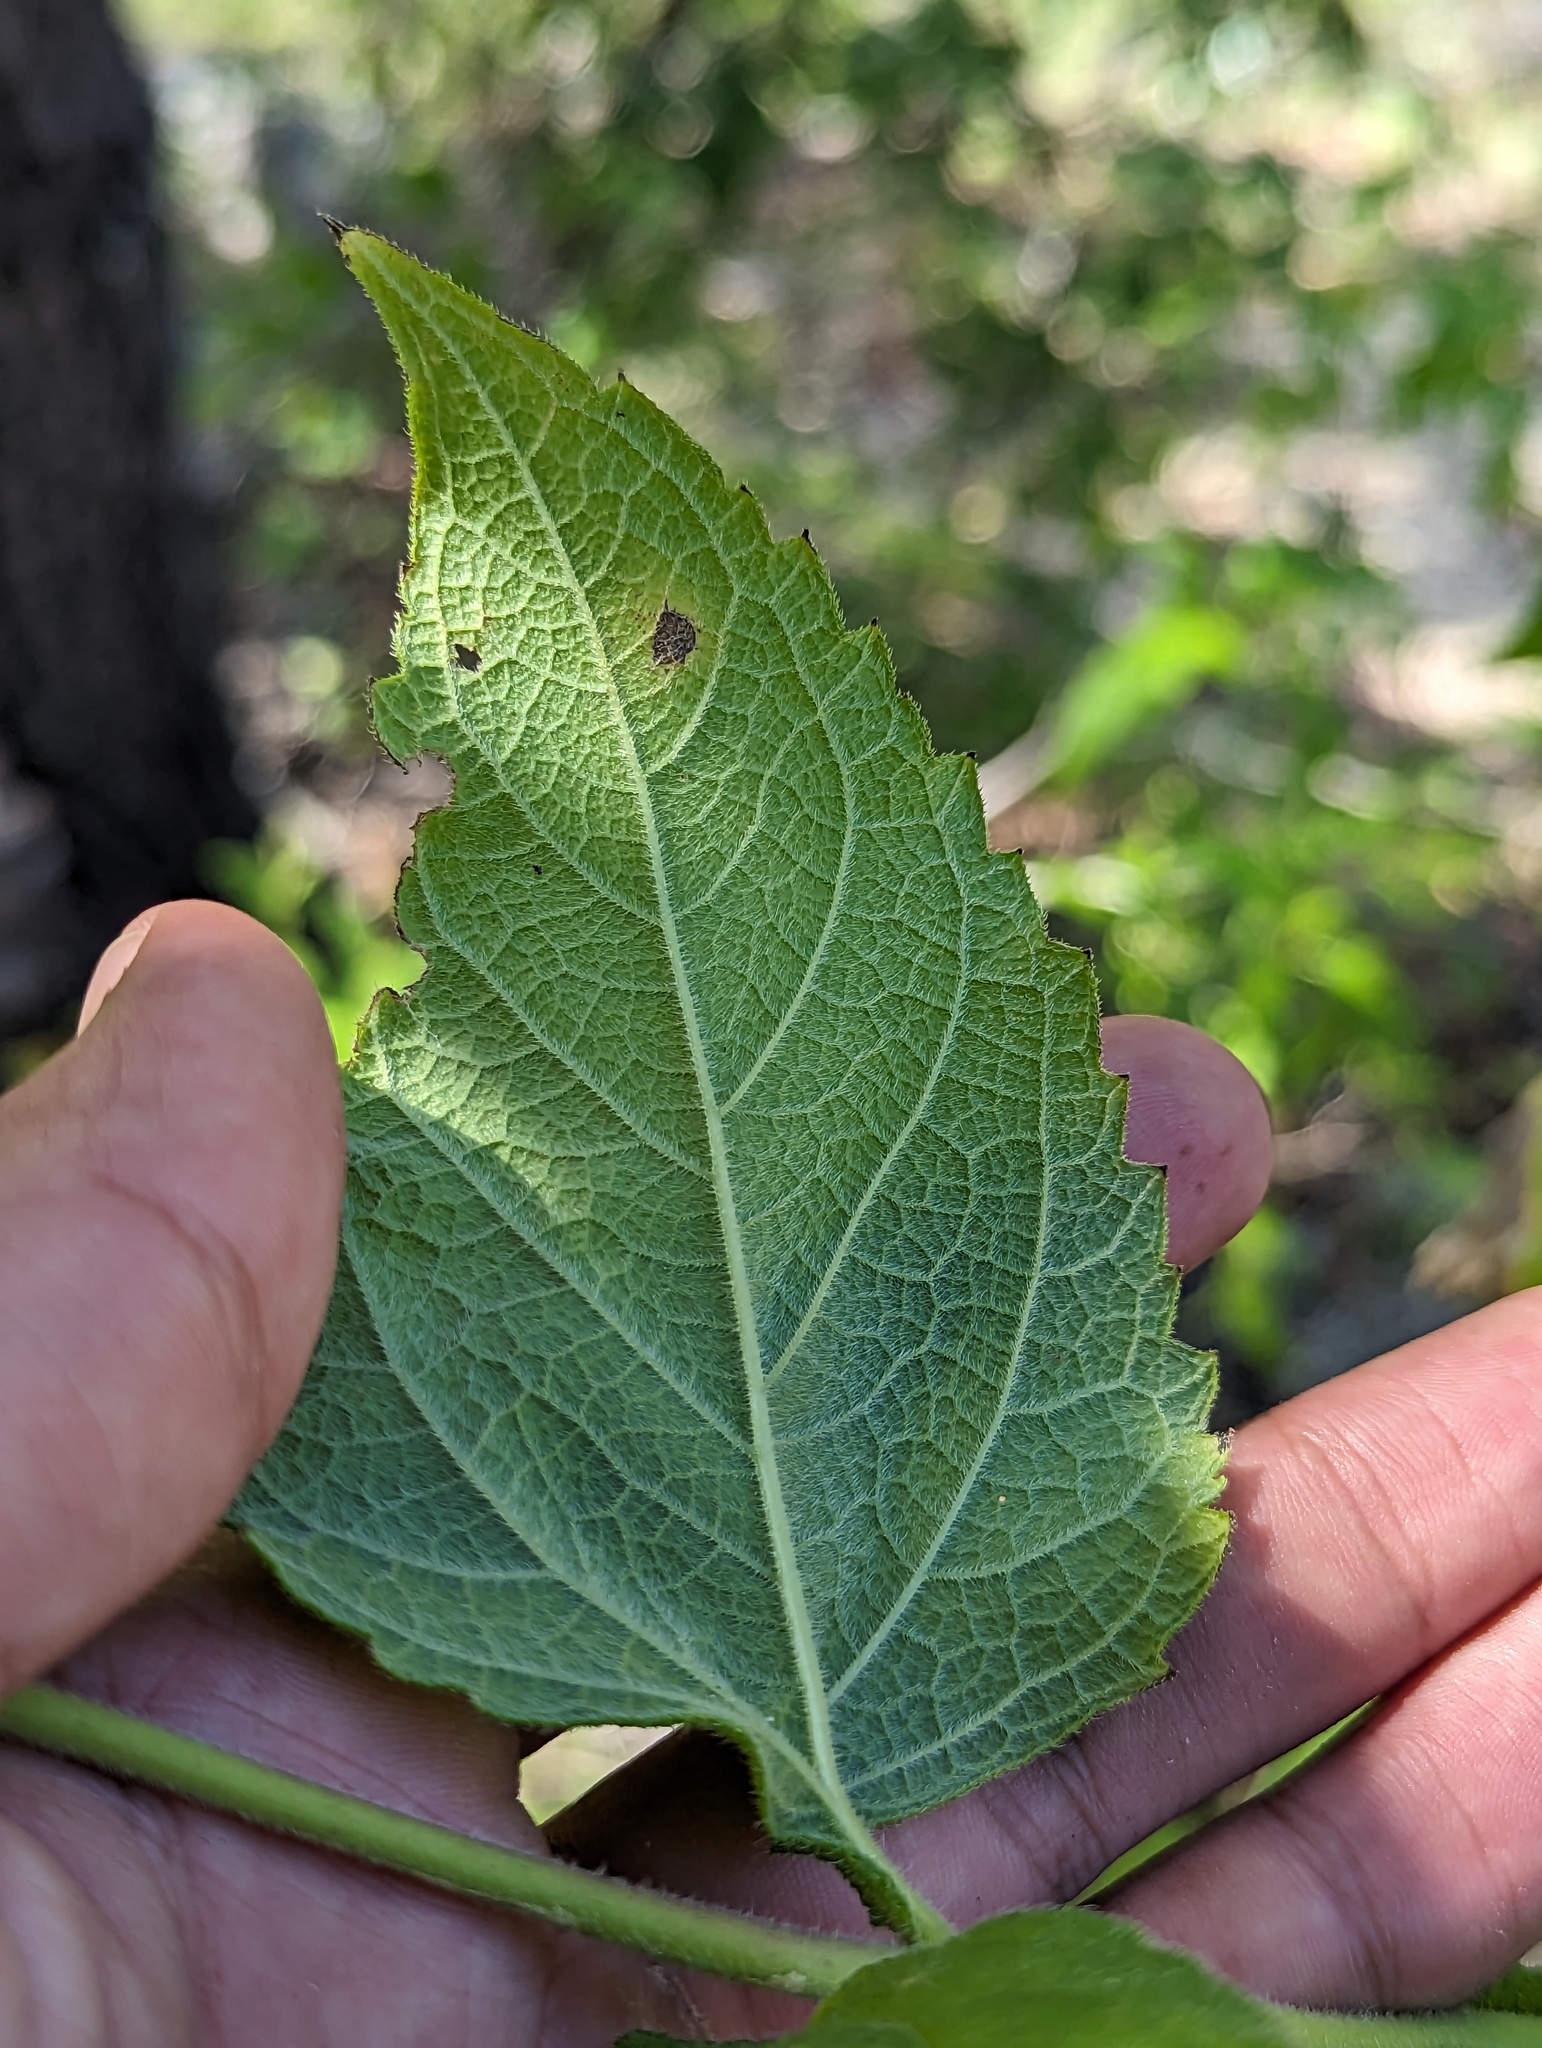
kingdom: Plantae
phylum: Tracheophyta
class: Magnoliopsida
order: Asterales
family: Asteraceae
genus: Verbesina
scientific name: Verbesina pustulata
